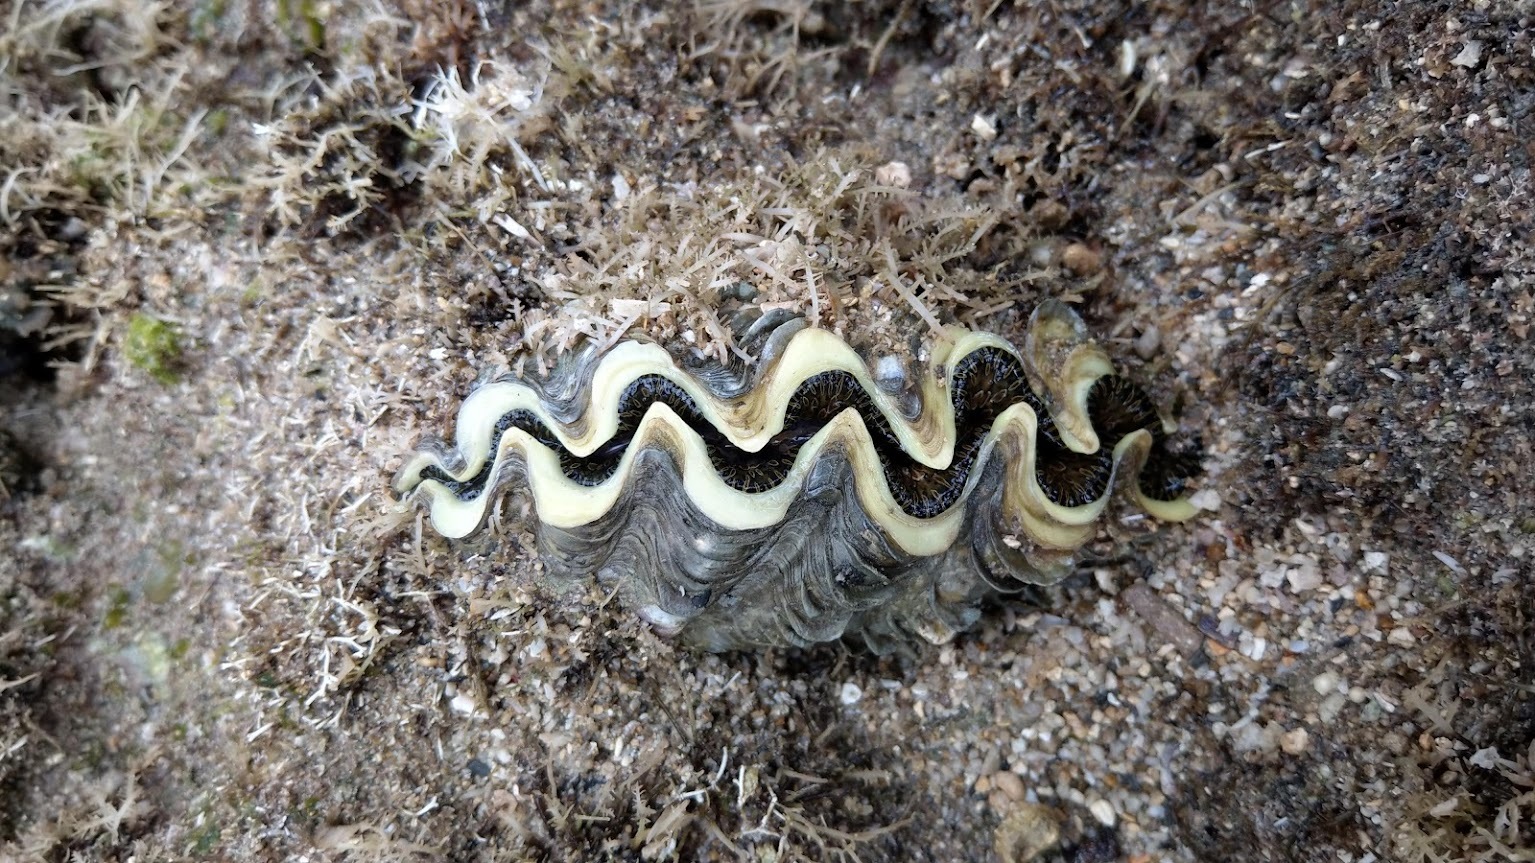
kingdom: Animalia
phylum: Mollusca
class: Bivalvia
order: Cardiida
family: Cardiidae
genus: Tridacna
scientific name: Tridacna noae
